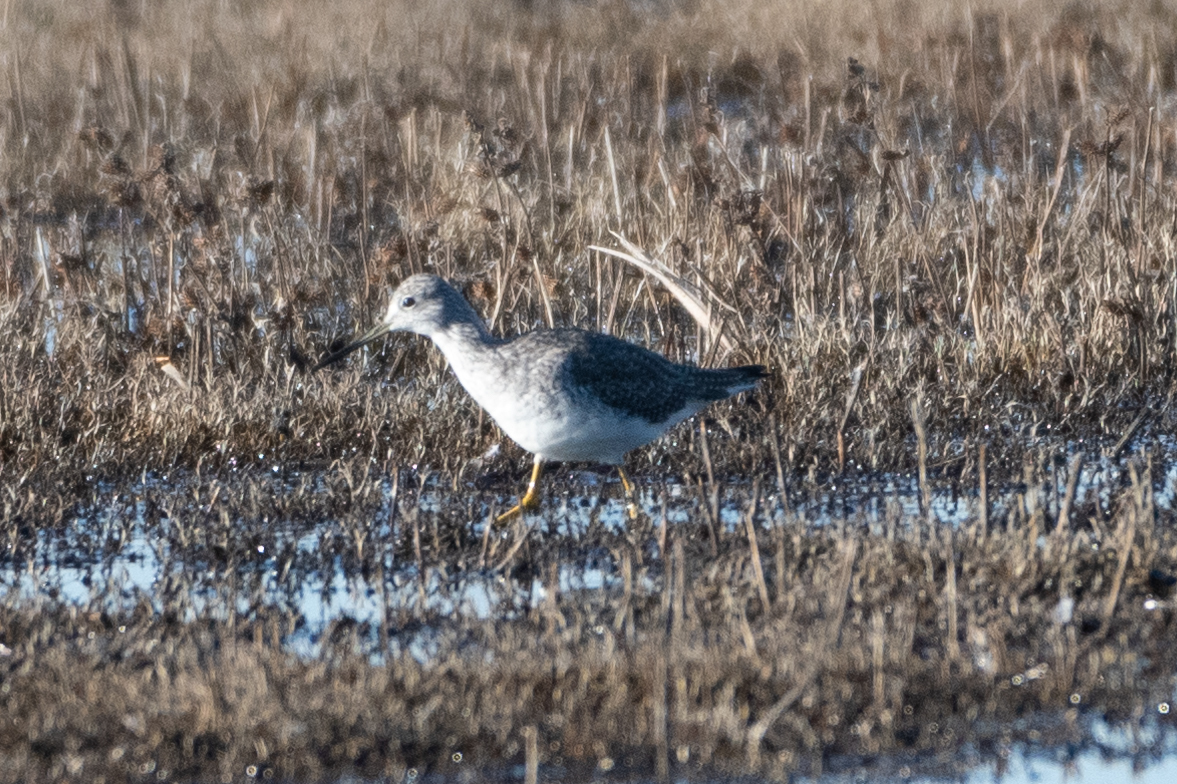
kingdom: Animalia
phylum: Chordata
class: Aves
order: Charadriiformes
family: Scolopacidae
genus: Tringa
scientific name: Tringa melanoleuca
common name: Greater yellowlegs
